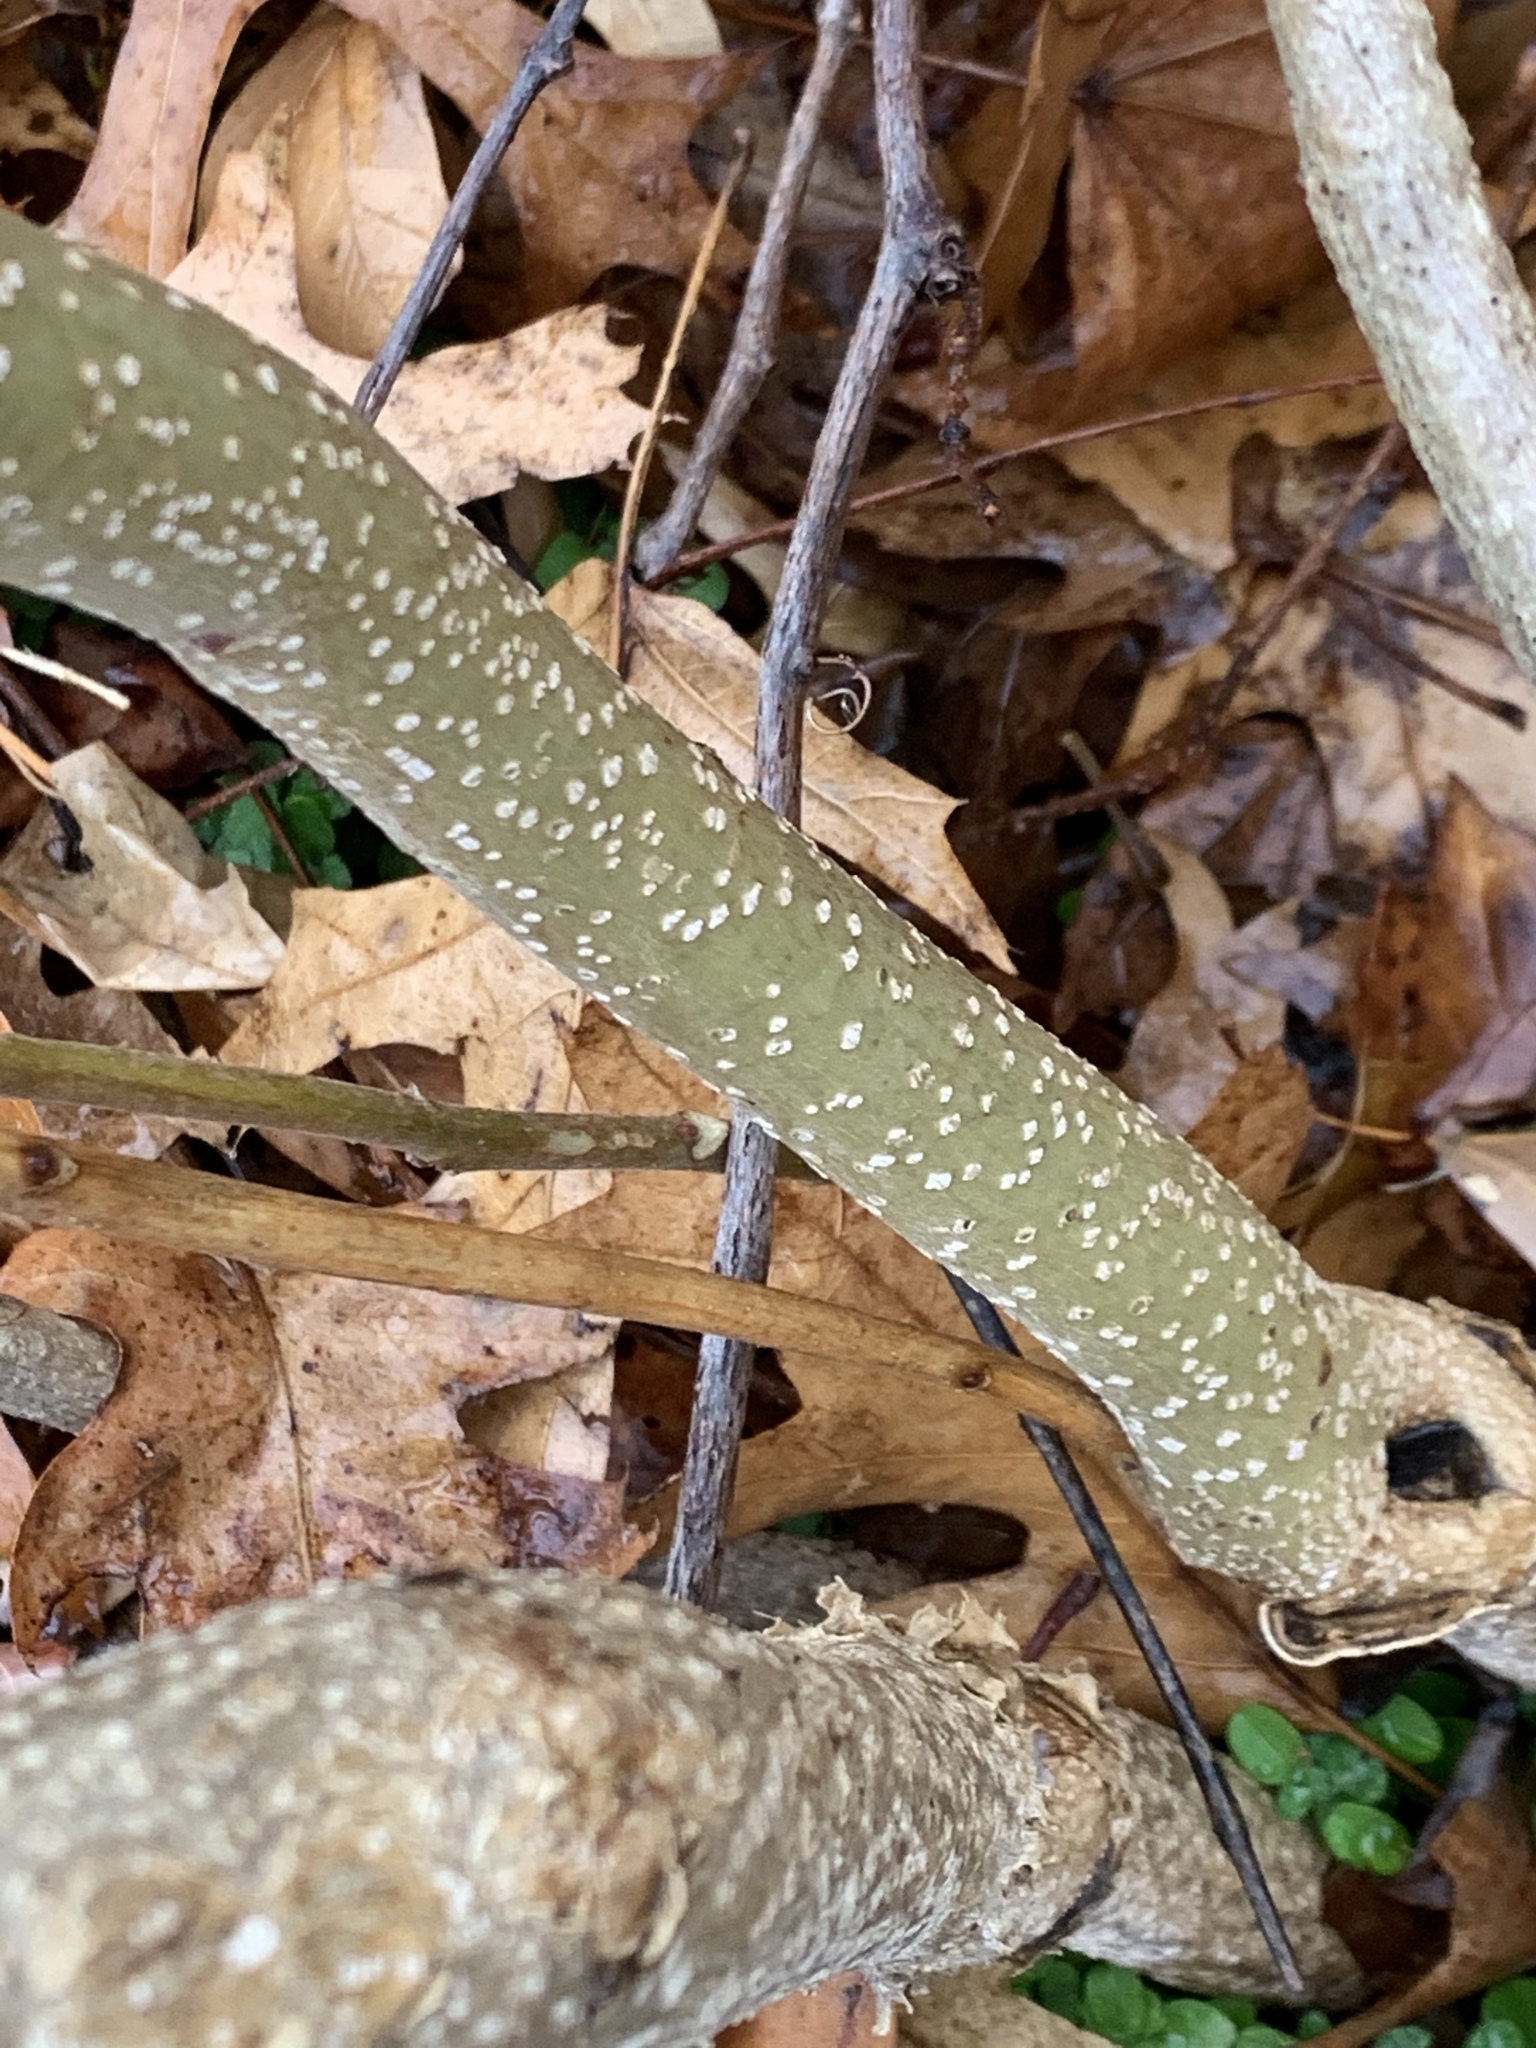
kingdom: Plantae
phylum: Tracheophyta
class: Magnoliopsida
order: Sapindales
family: Simaroubaceae
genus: Ailanthus
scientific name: Ailanthus altissima
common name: Tree-of-heaven
